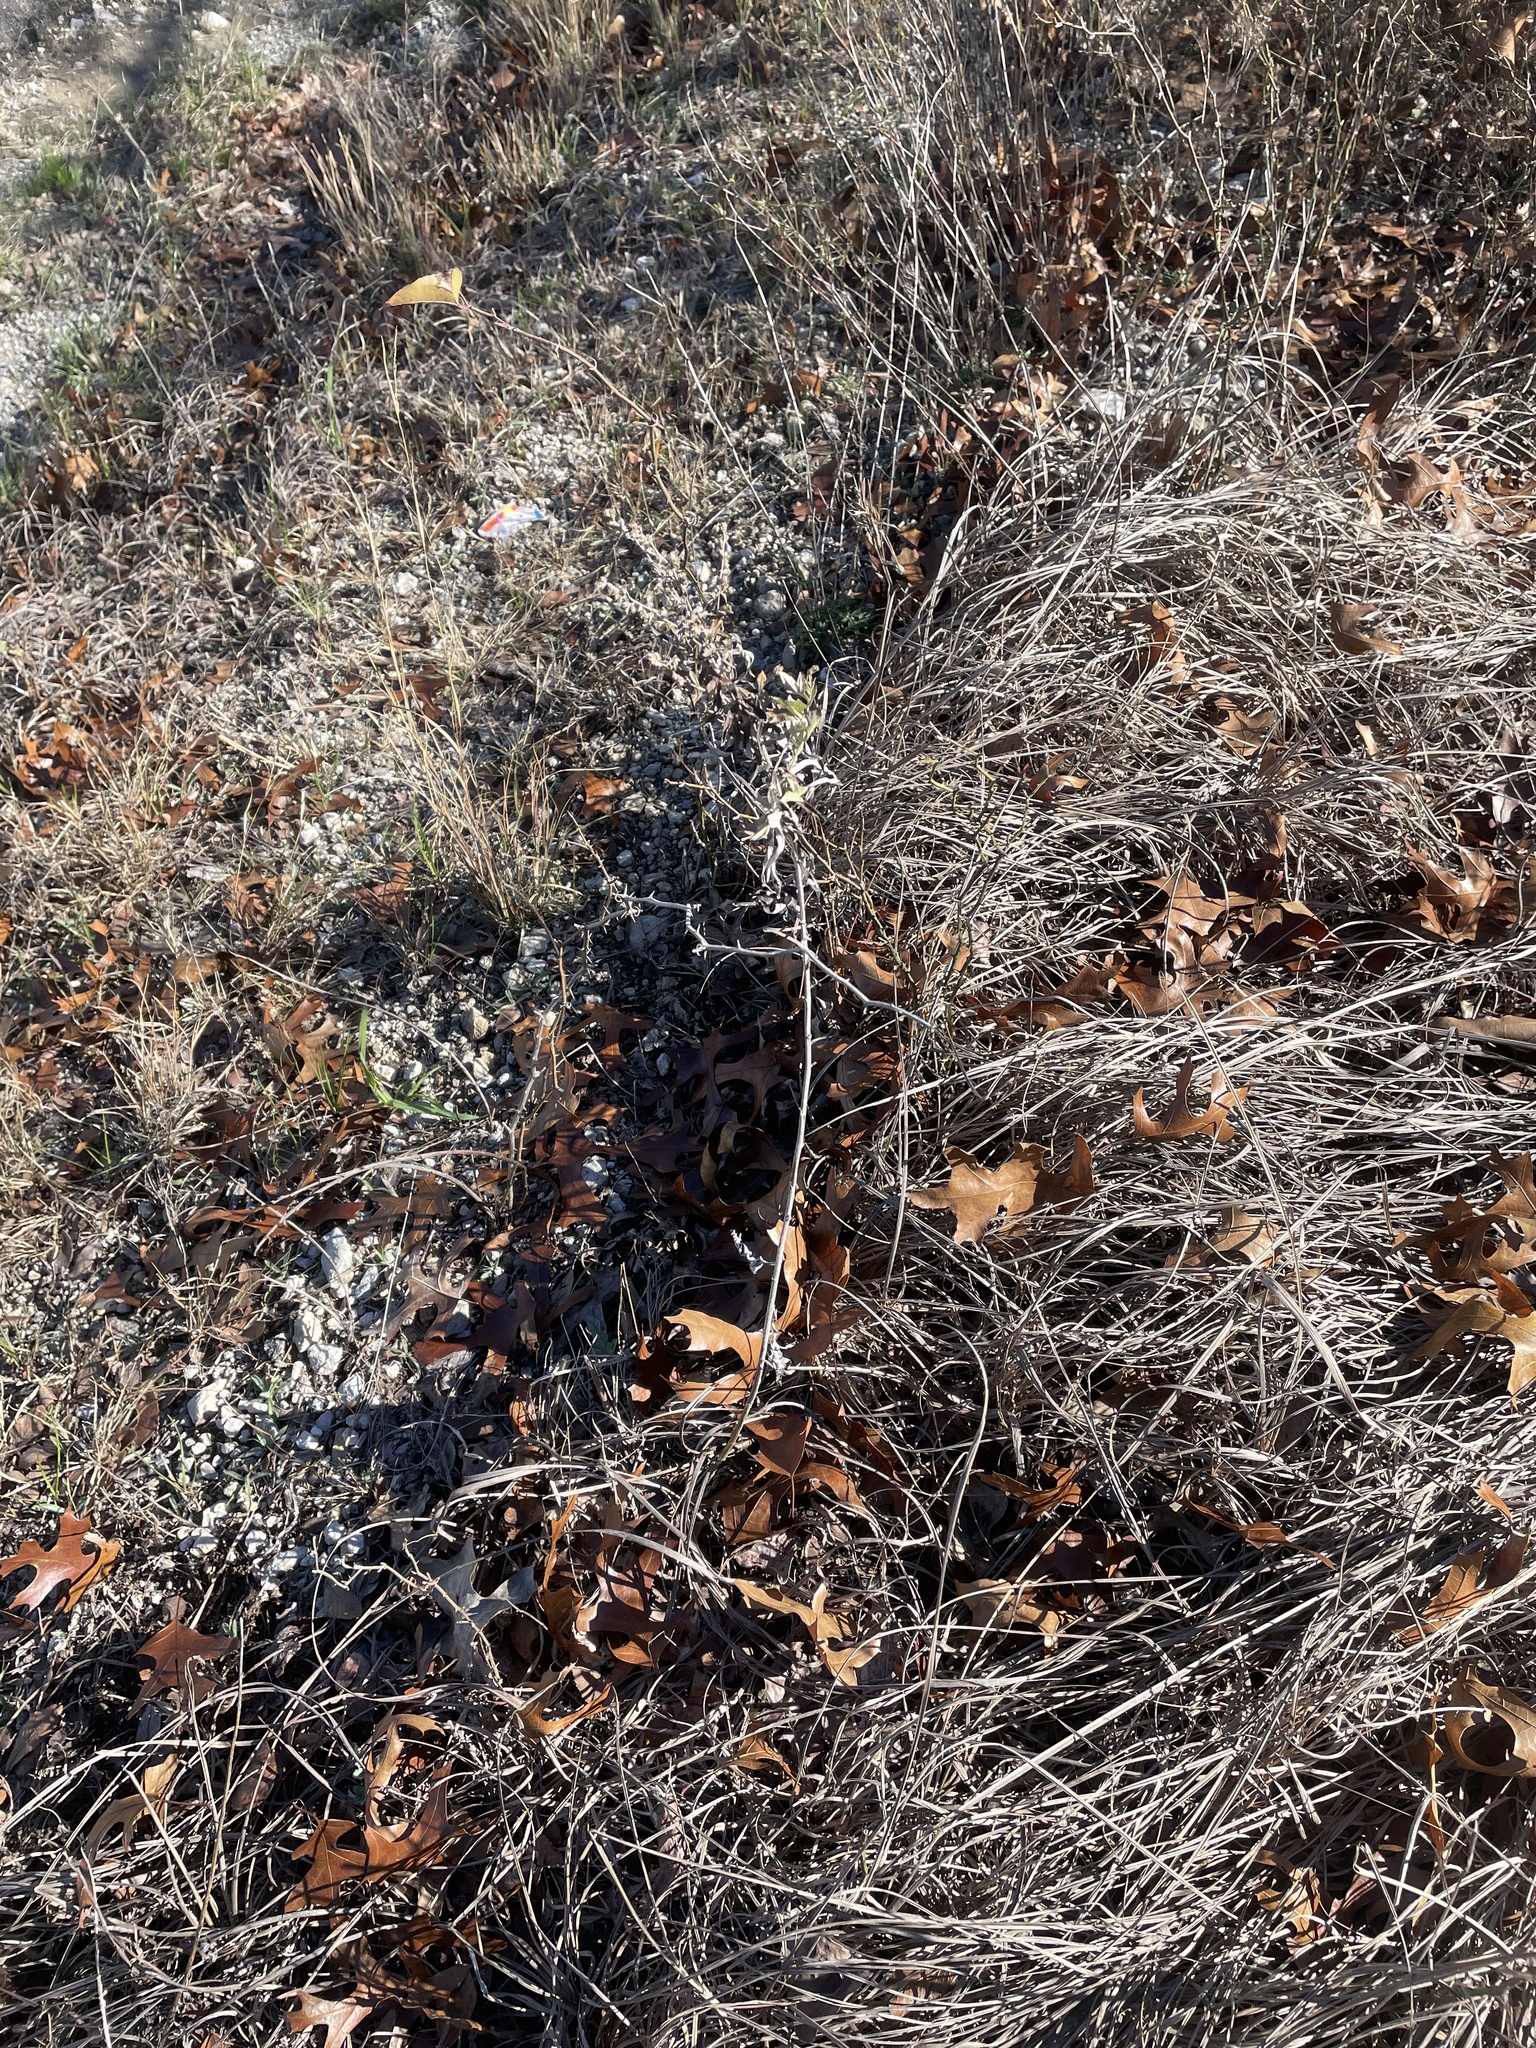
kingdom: Plantae
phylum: Tracheophyta
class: Magnoliopsida
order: Asterales
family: Asteraceae
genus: Artemisia
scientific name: Artemisia ludoviciana
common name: Western mugwort
